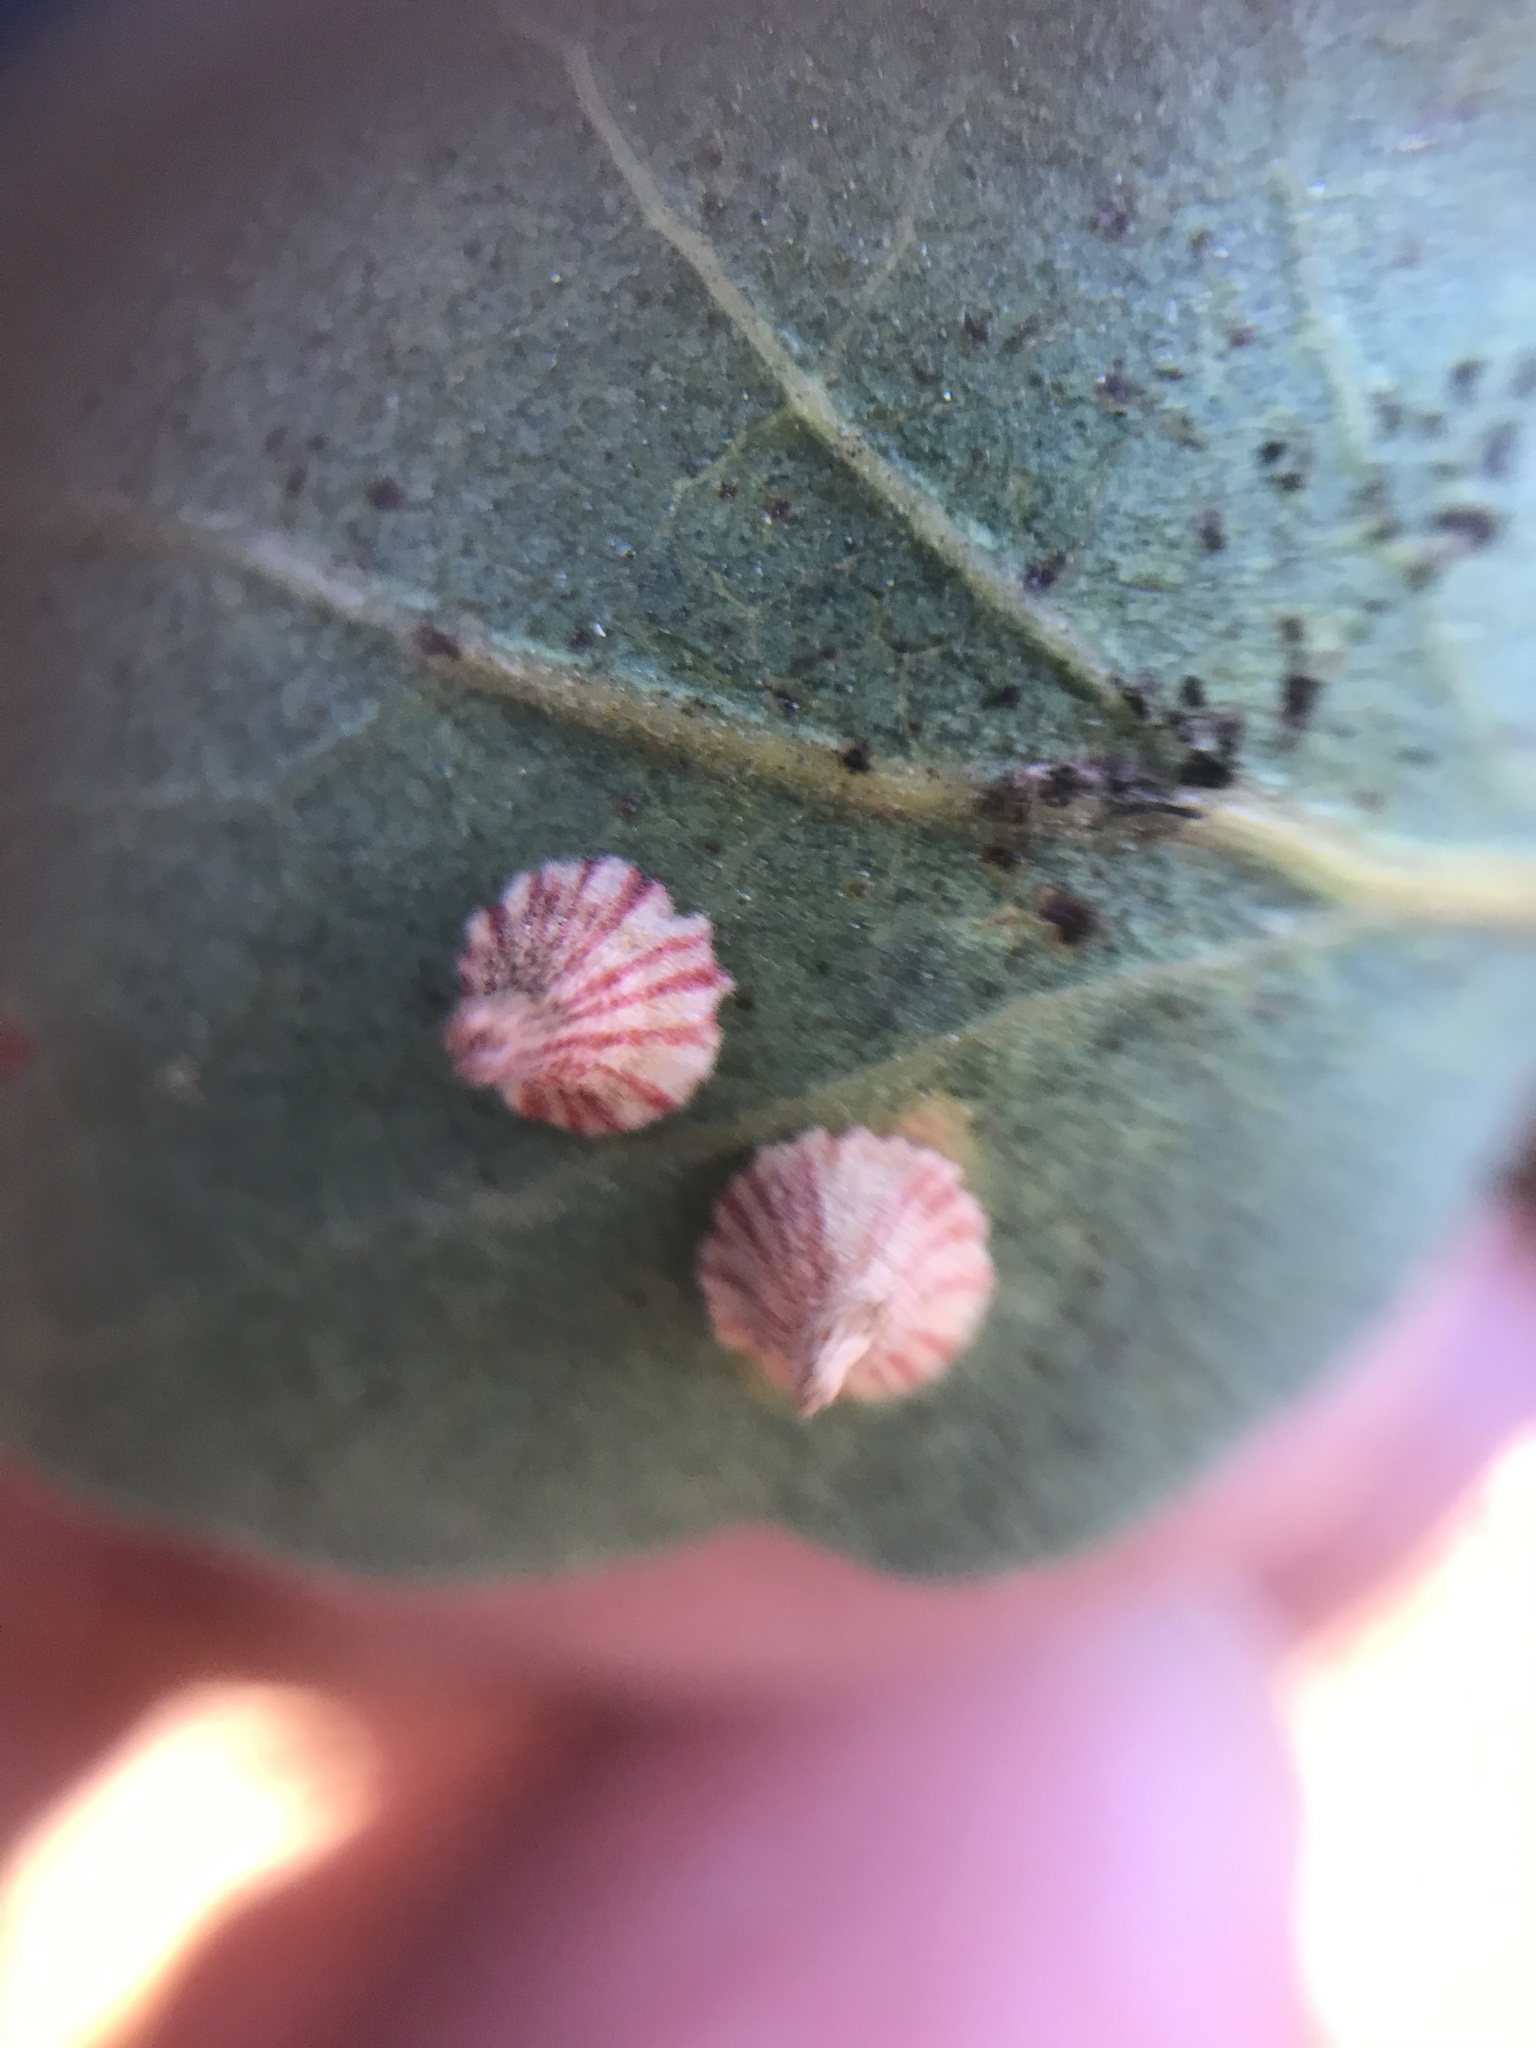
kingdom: Animalia
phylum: Arthropoda
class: Insecta
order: Hymenoptera
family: Cynipidae
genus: Andricus
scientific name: Andricus
